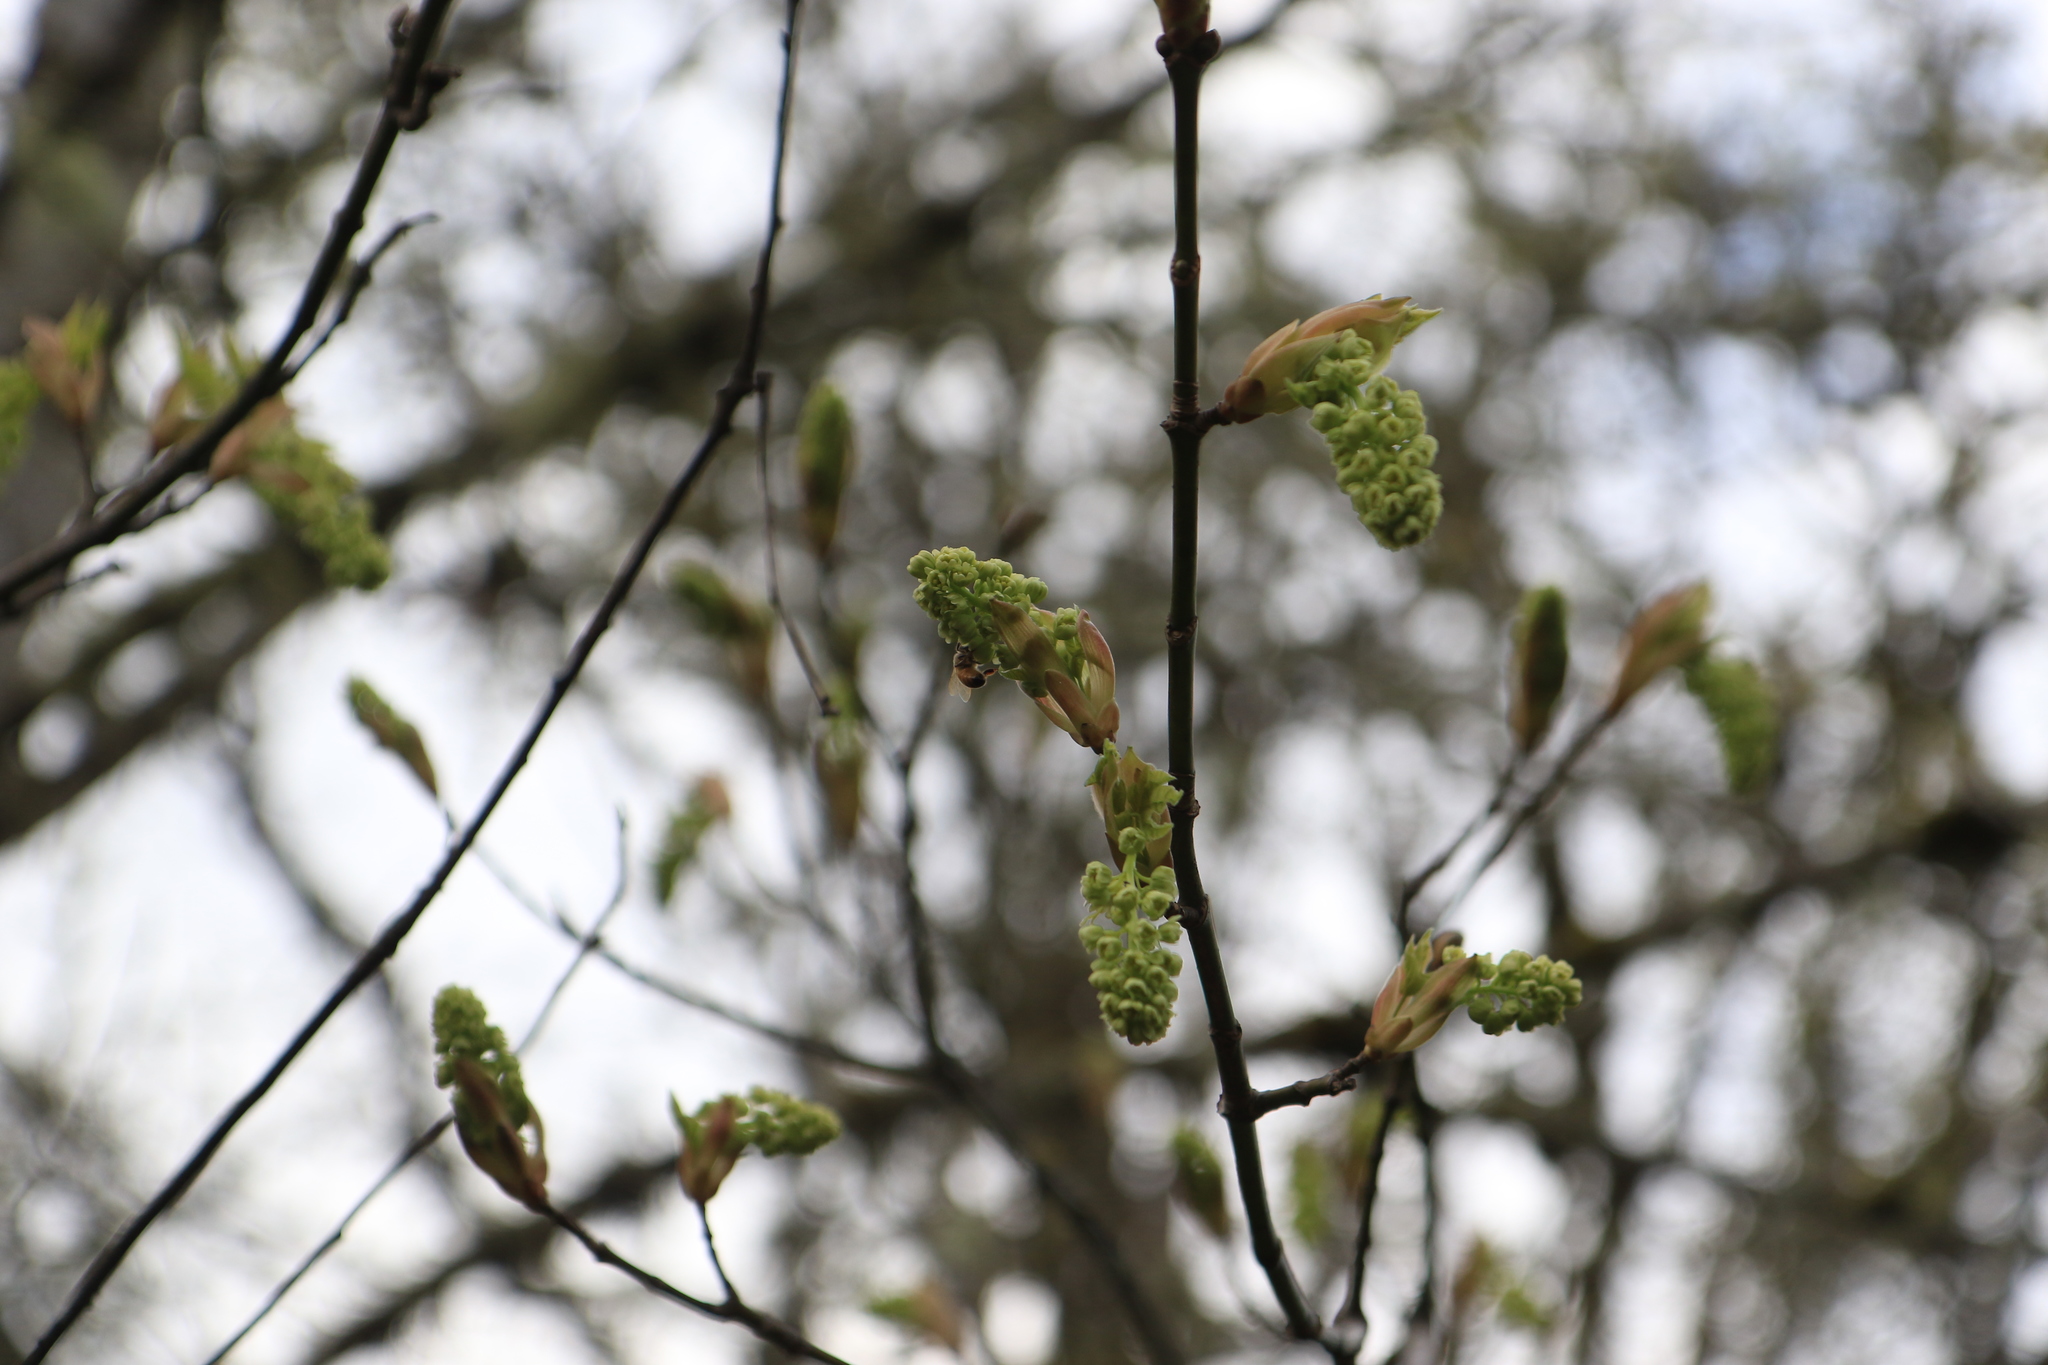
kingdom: Plantae
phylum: Tracheophyta
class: Magnoliopsida
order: Sapindales
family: Sapindaceae
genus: Acer
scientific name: Acer macrophyllum
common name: Oregon maple
